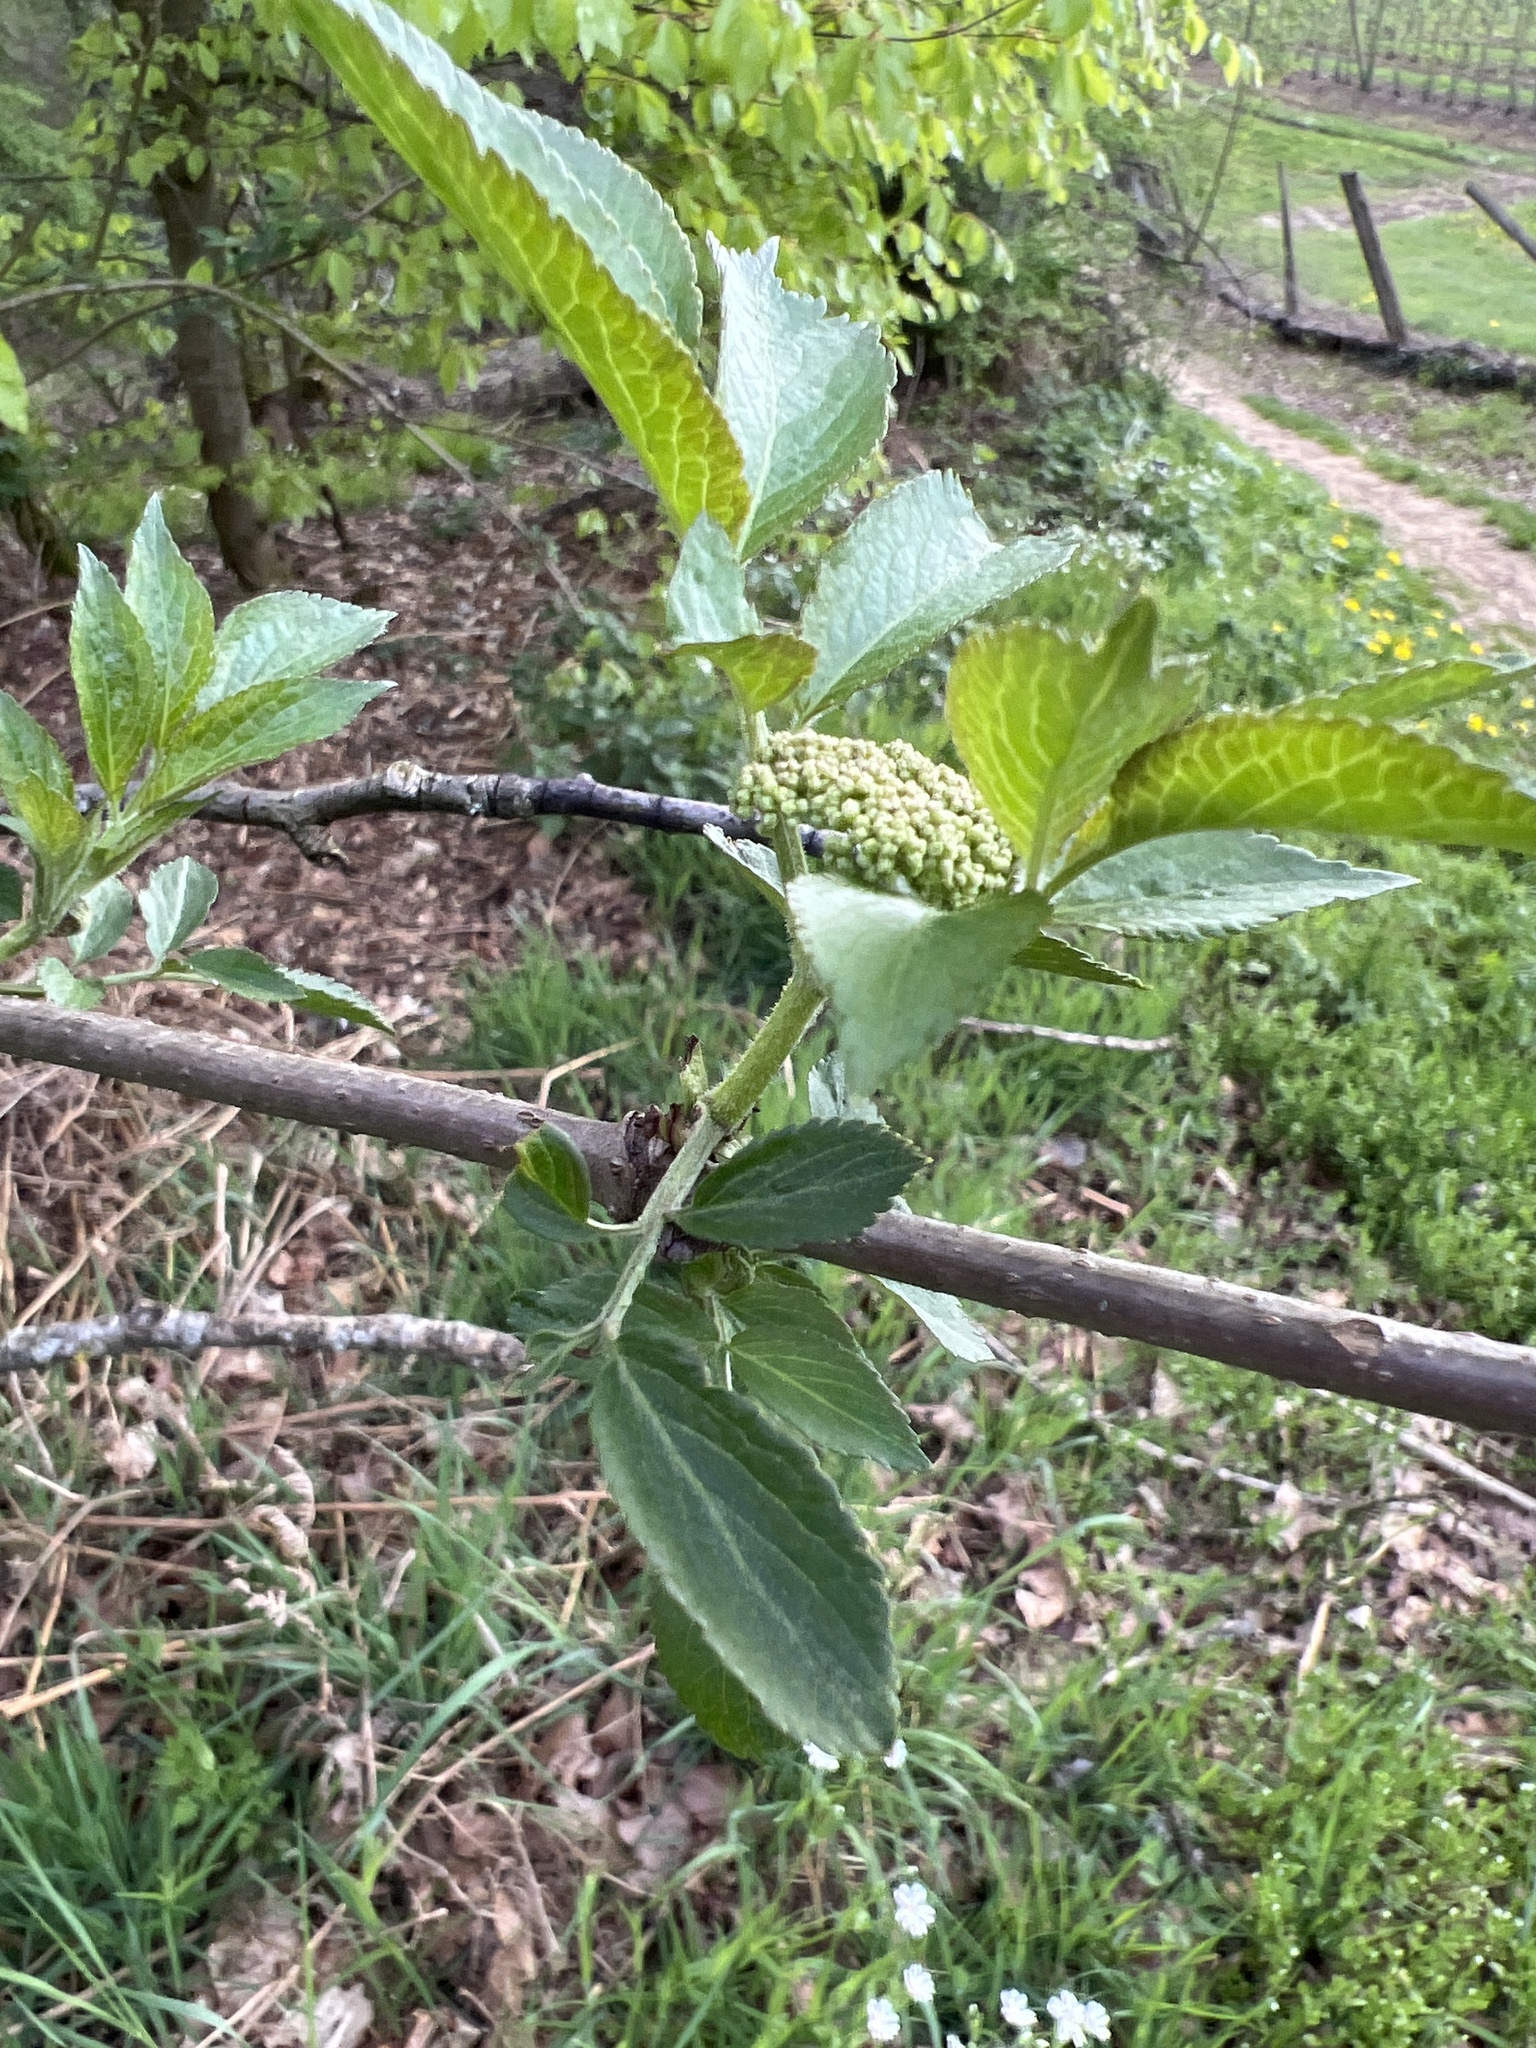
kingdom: Plantae
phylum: Tracheophyta
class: Magnoliopsida
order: Dipsacales
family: Viburnaceae
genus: Sambucus
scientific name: Sambucus nigra
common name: Elder
